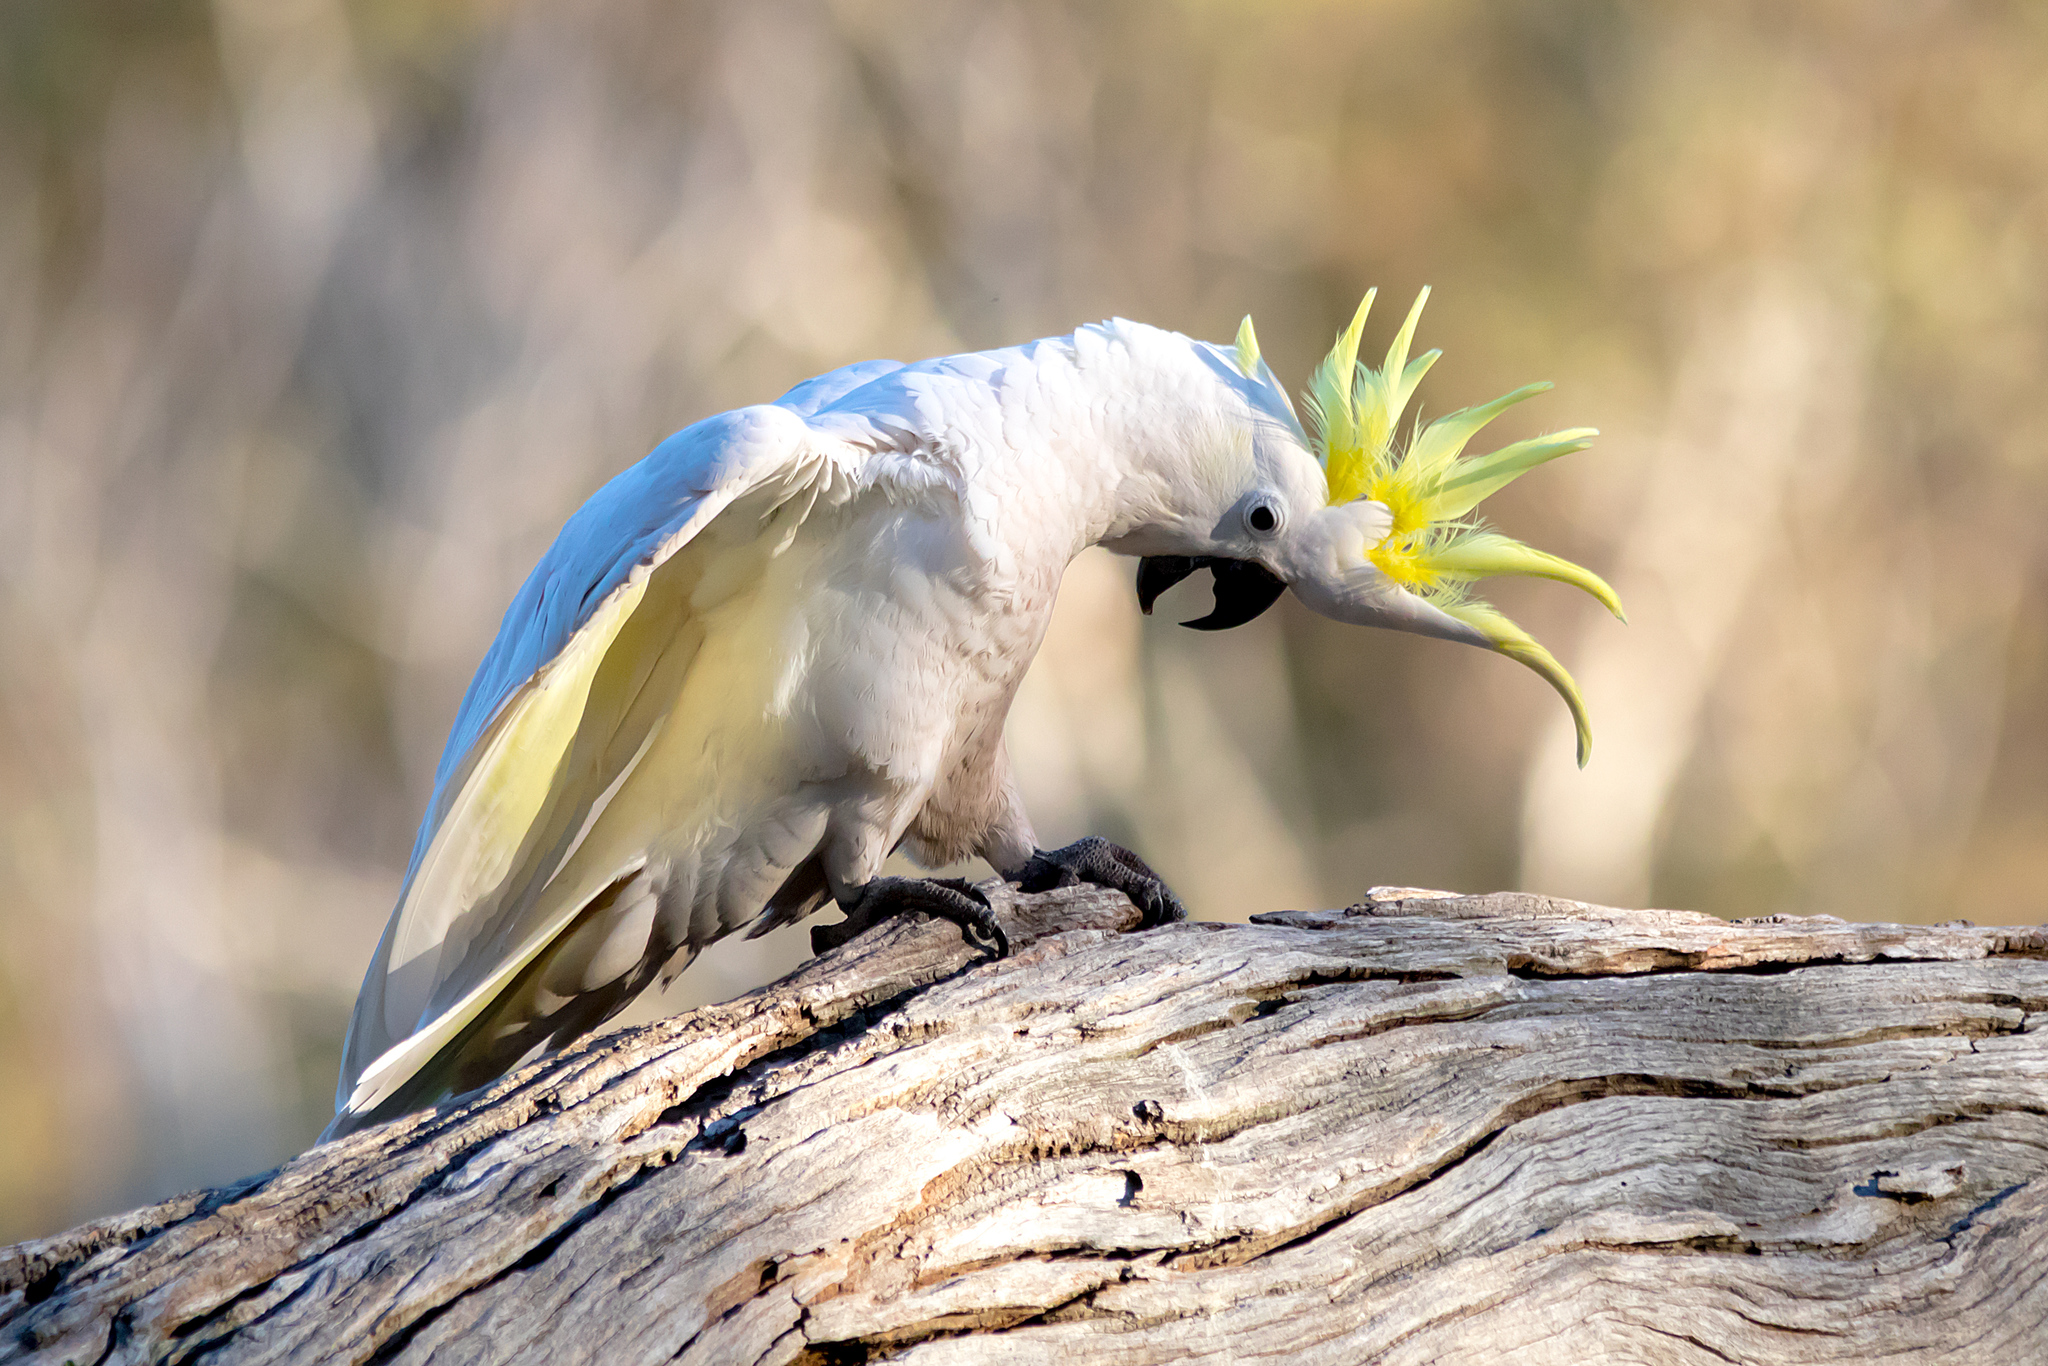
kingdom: Animalia
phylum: Chordata
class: Aves
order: Psittaciformes
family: Psittacidae
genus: Cacatua
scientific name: Cacatua galerita
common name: Sulphur-crested cockatoo
